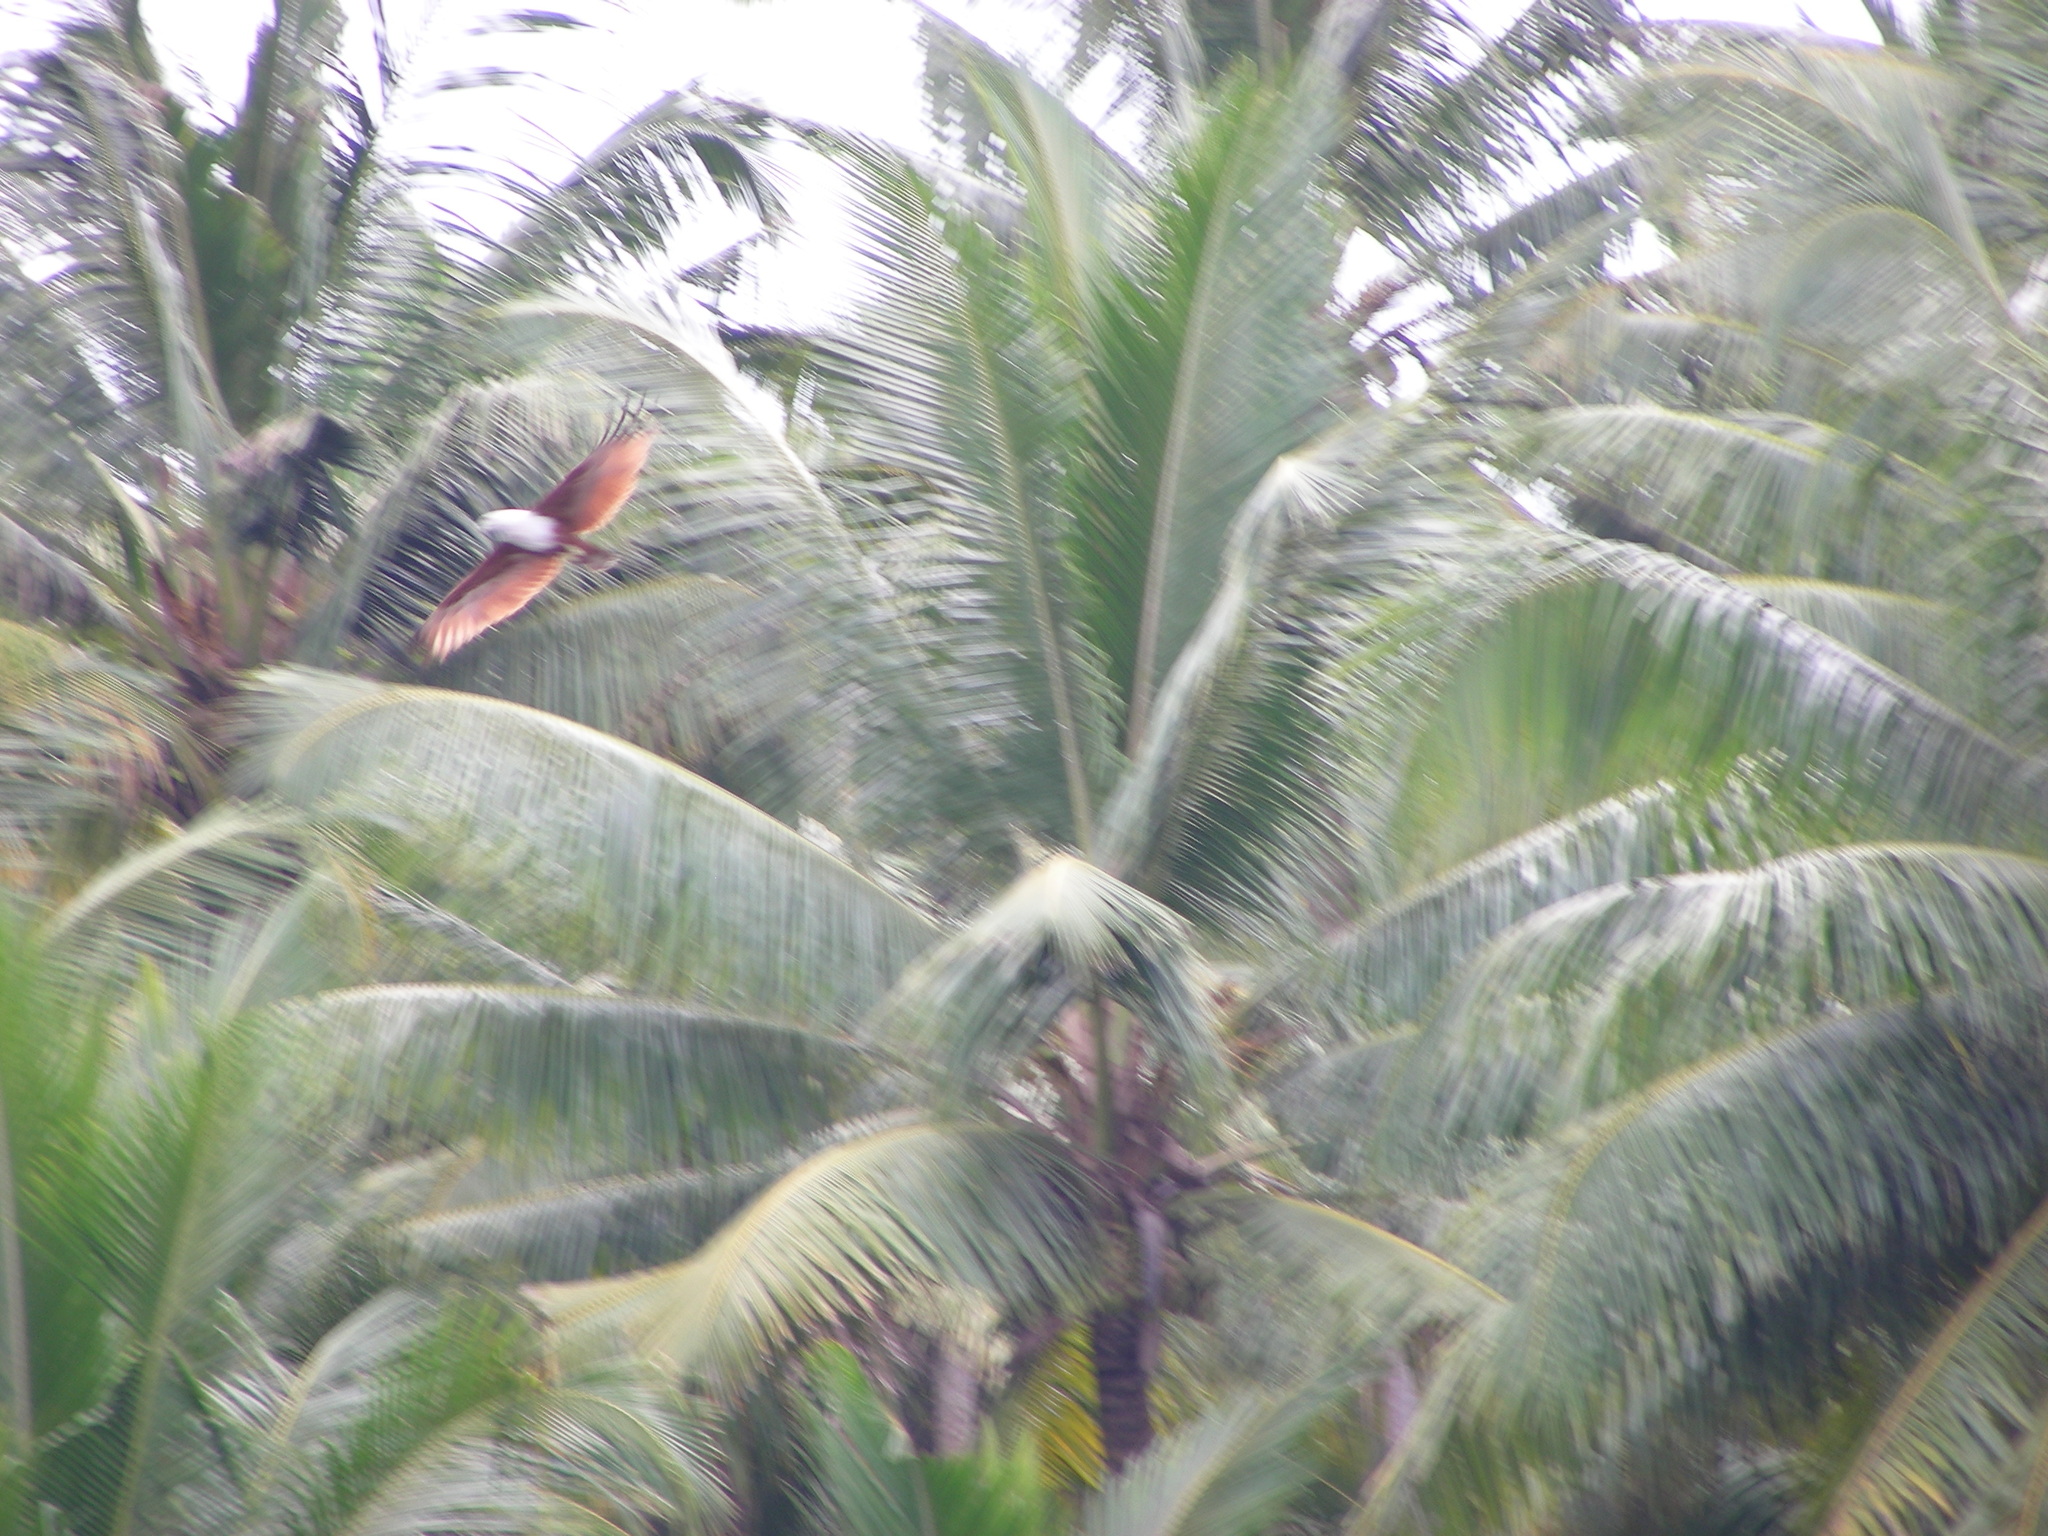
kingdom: Animalia
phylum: Chordata
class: Aves
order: Accipitriformes
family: Accipitridae
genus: Haliastur
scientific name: Haliastur indus
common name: Brahminy kite
